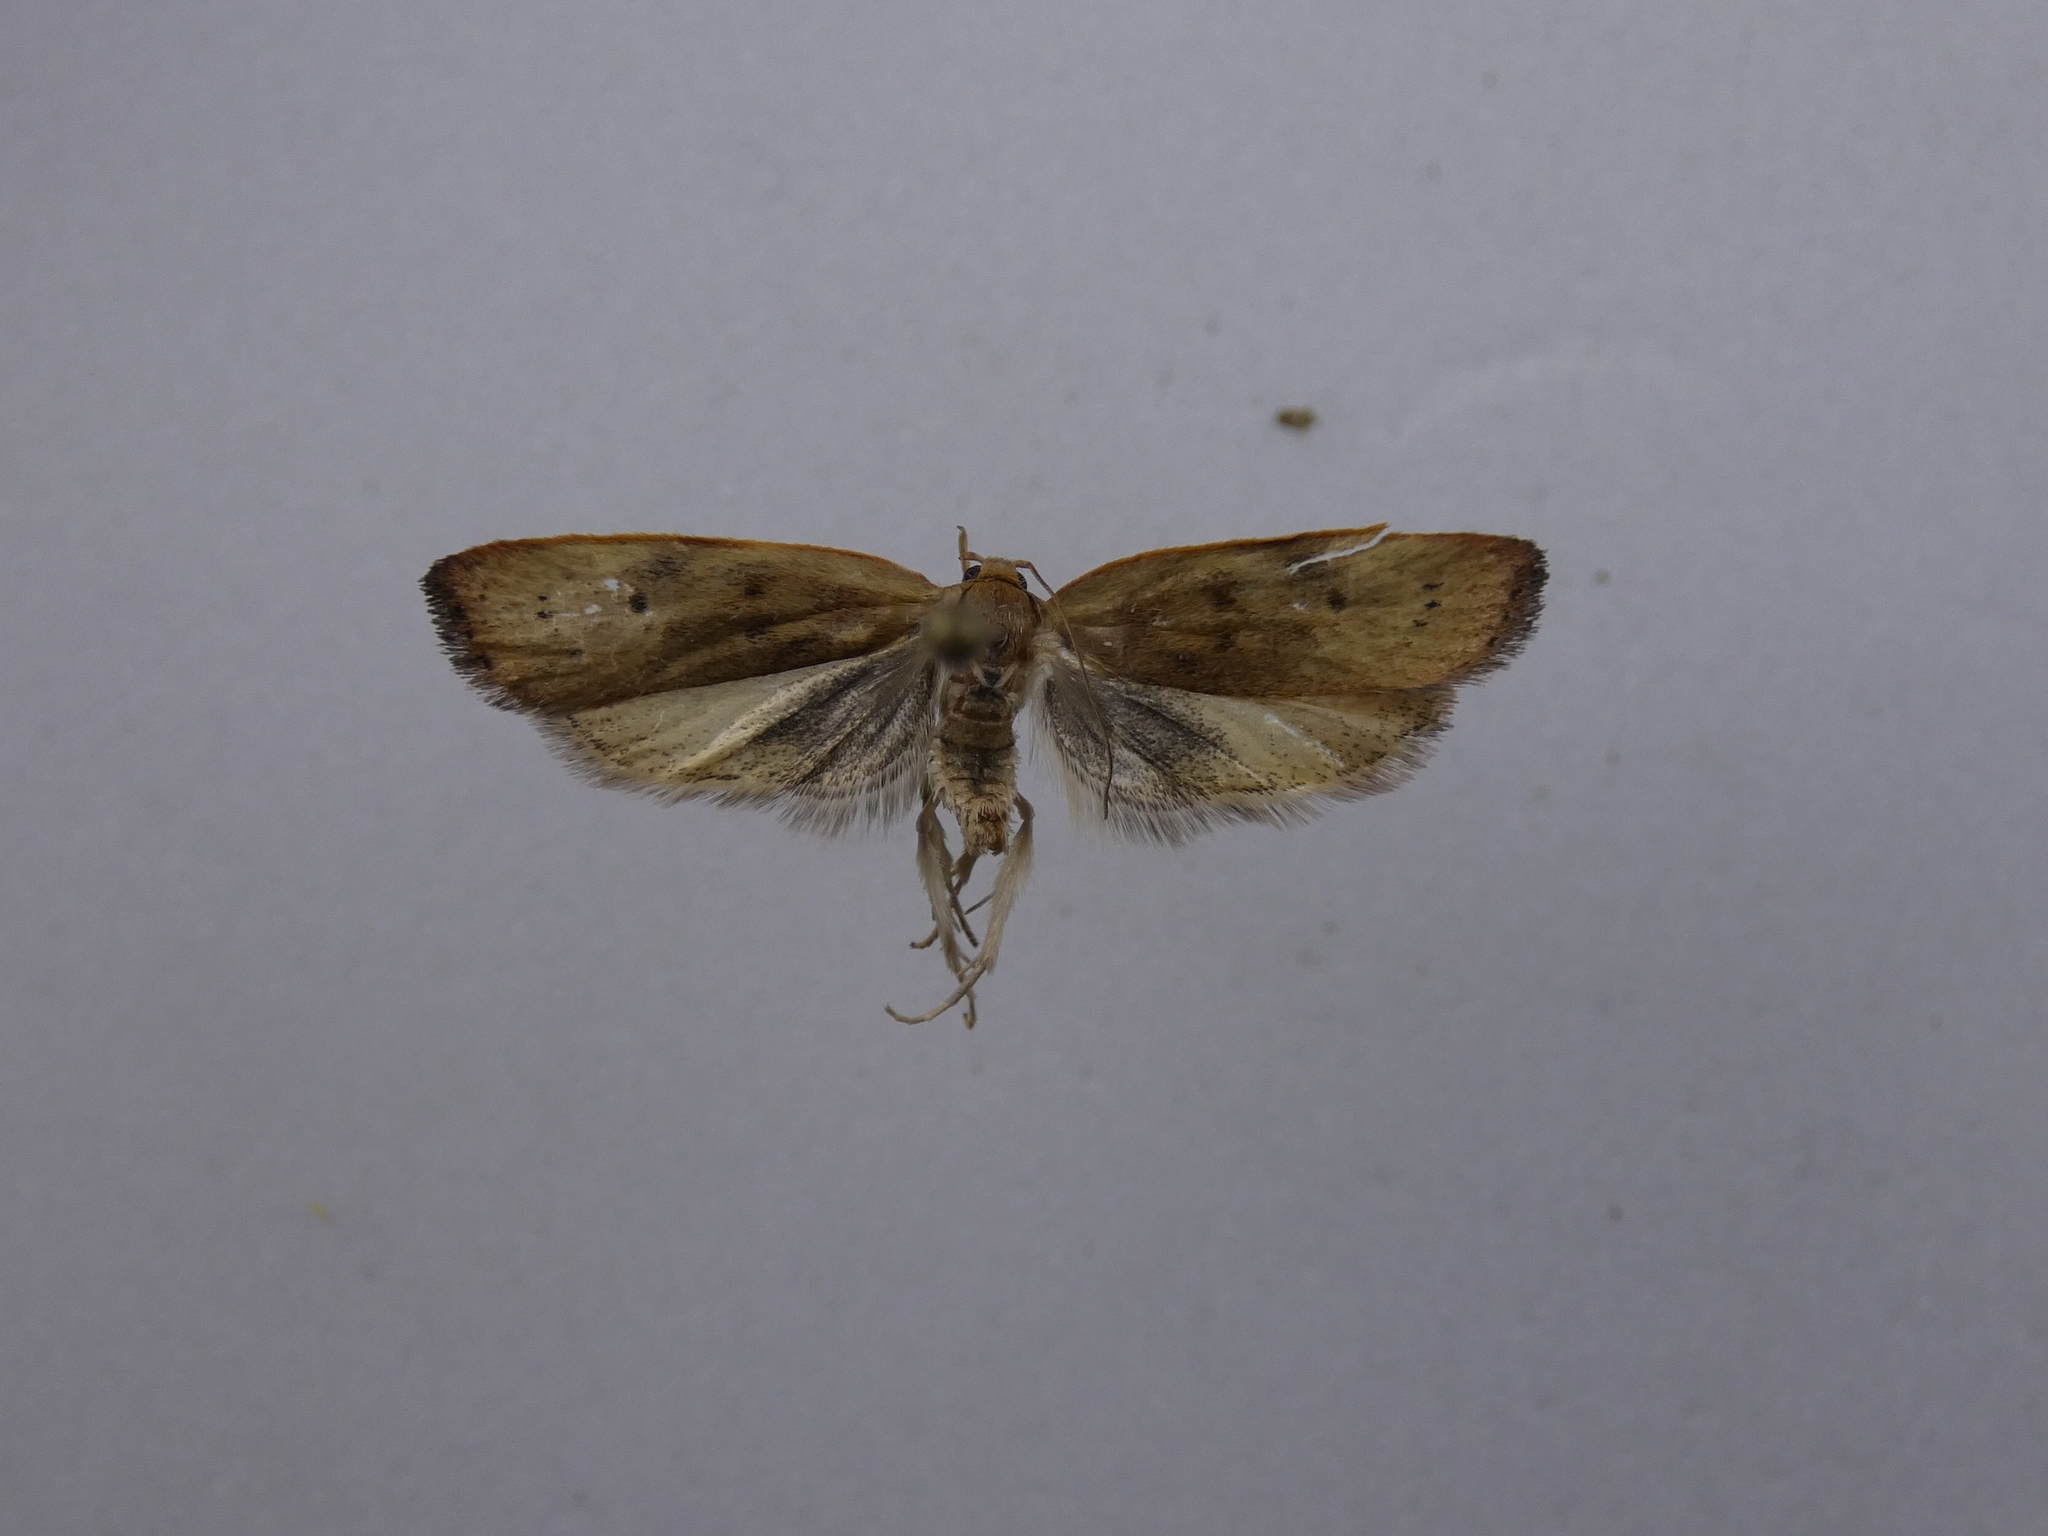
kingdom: Animalia
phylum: Arthropoda
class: Insecta
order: Lepidoptera
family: Depressariidae
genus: Phaeosaces
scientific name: Phaeosaces coarctatella
